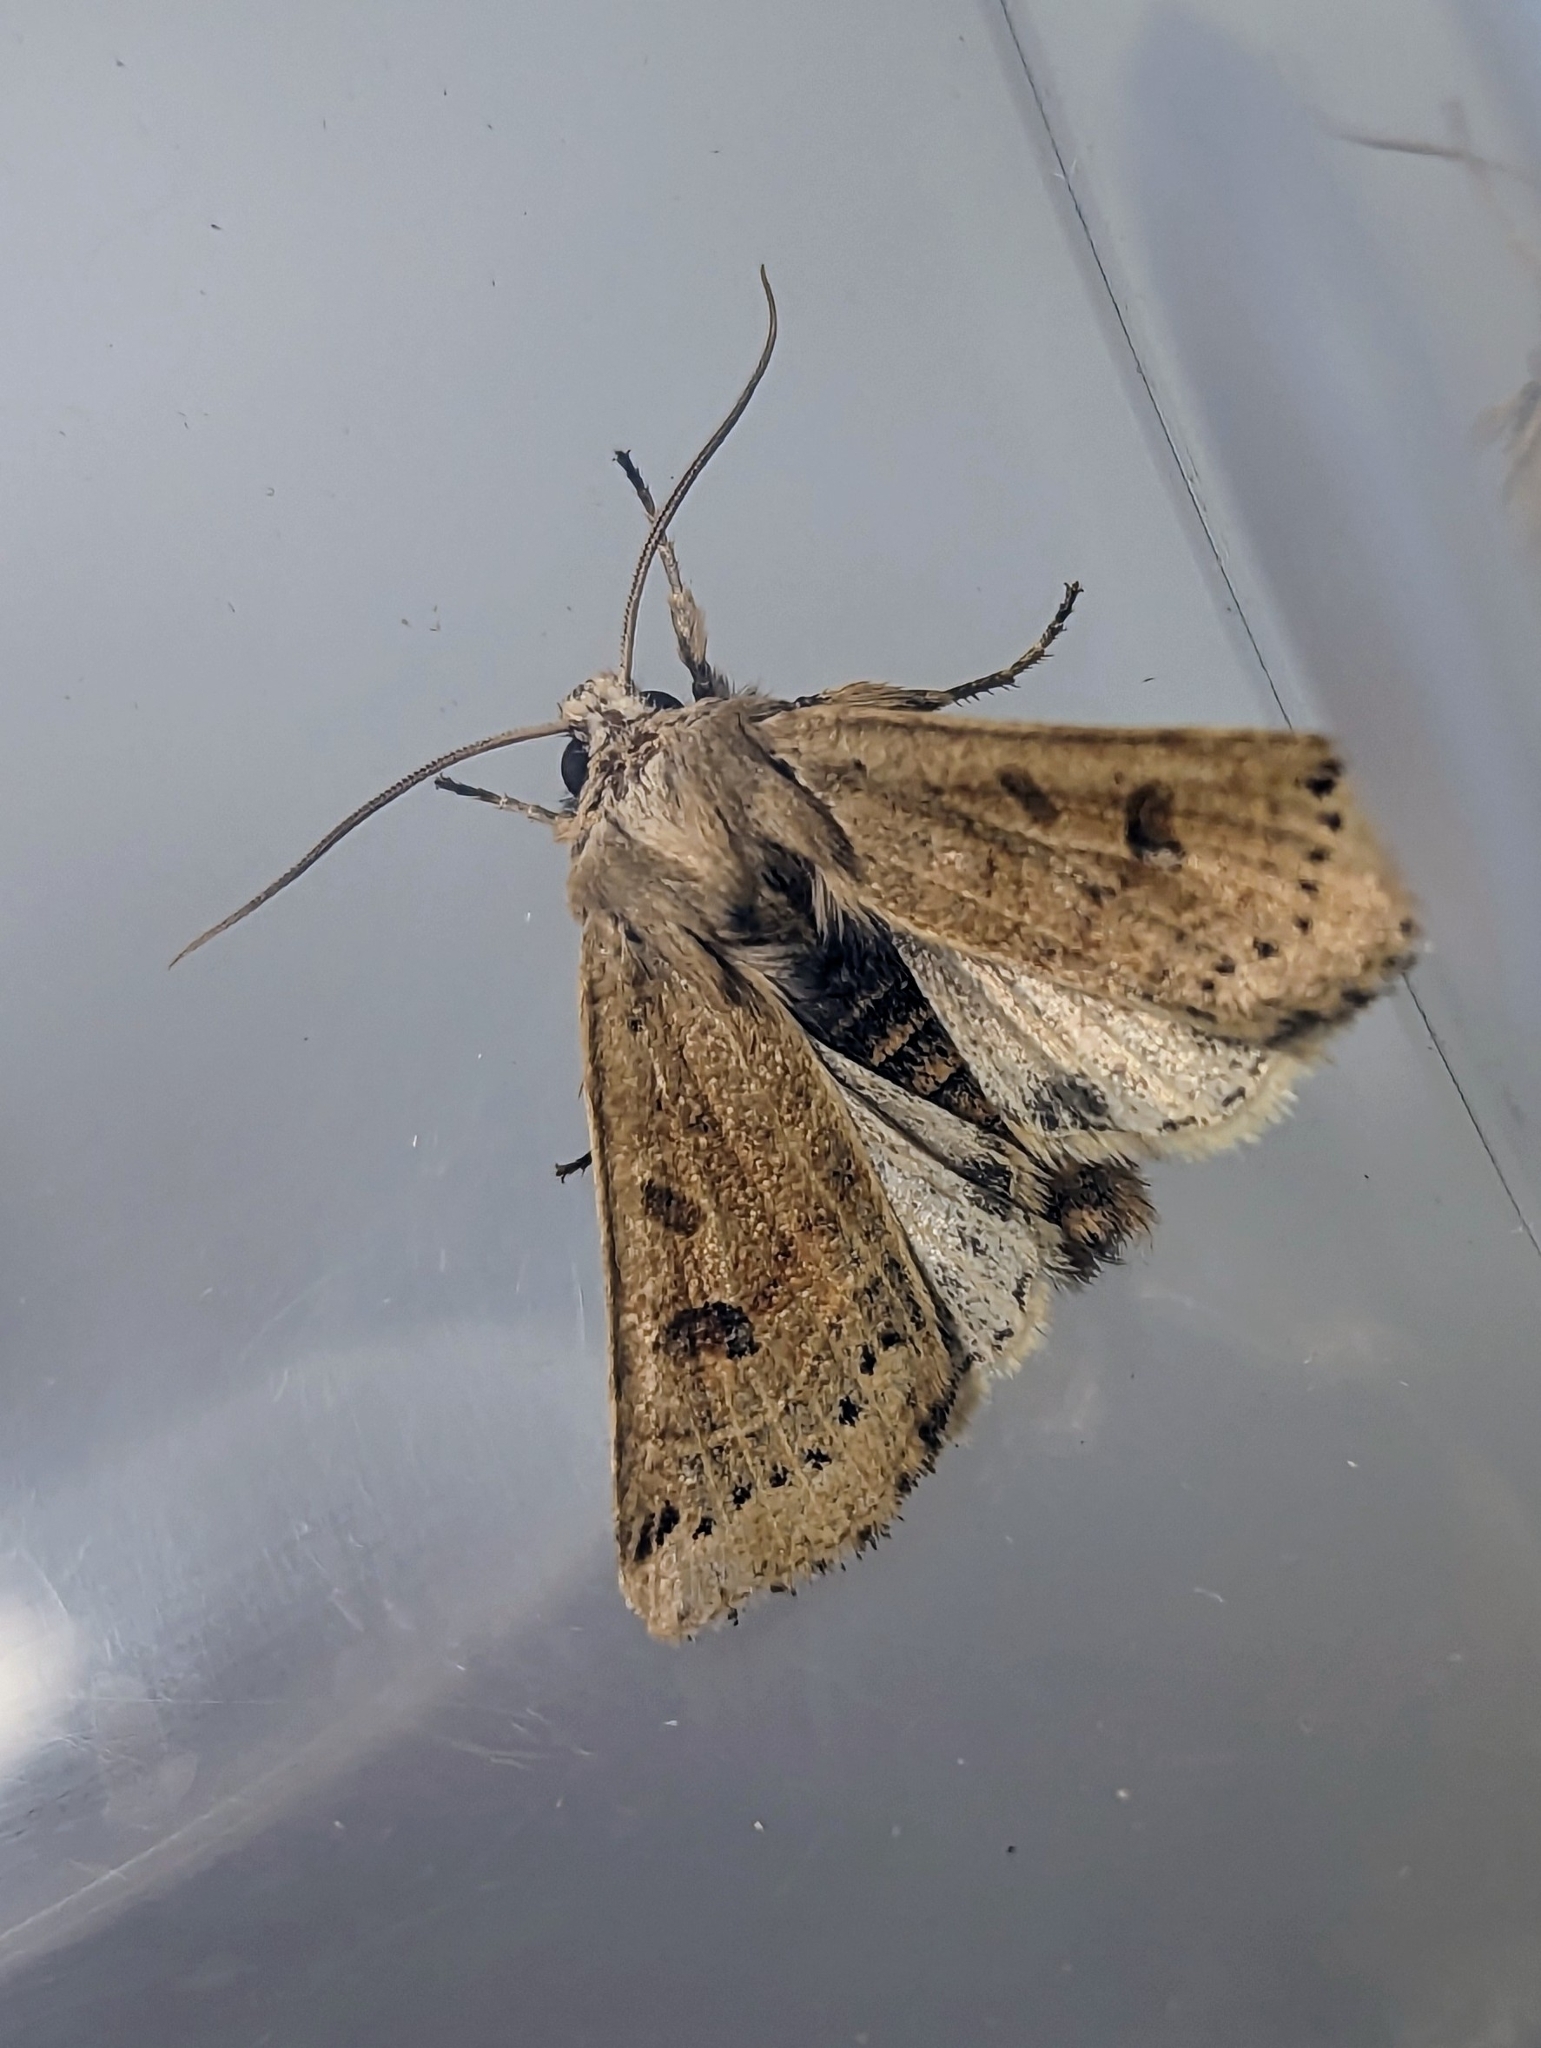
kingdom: Animalia
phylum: Arthropoda
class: Insecta
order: Lepidoptera
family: Noctuidae
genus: Agrochola
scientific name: Agrochola lunosa
